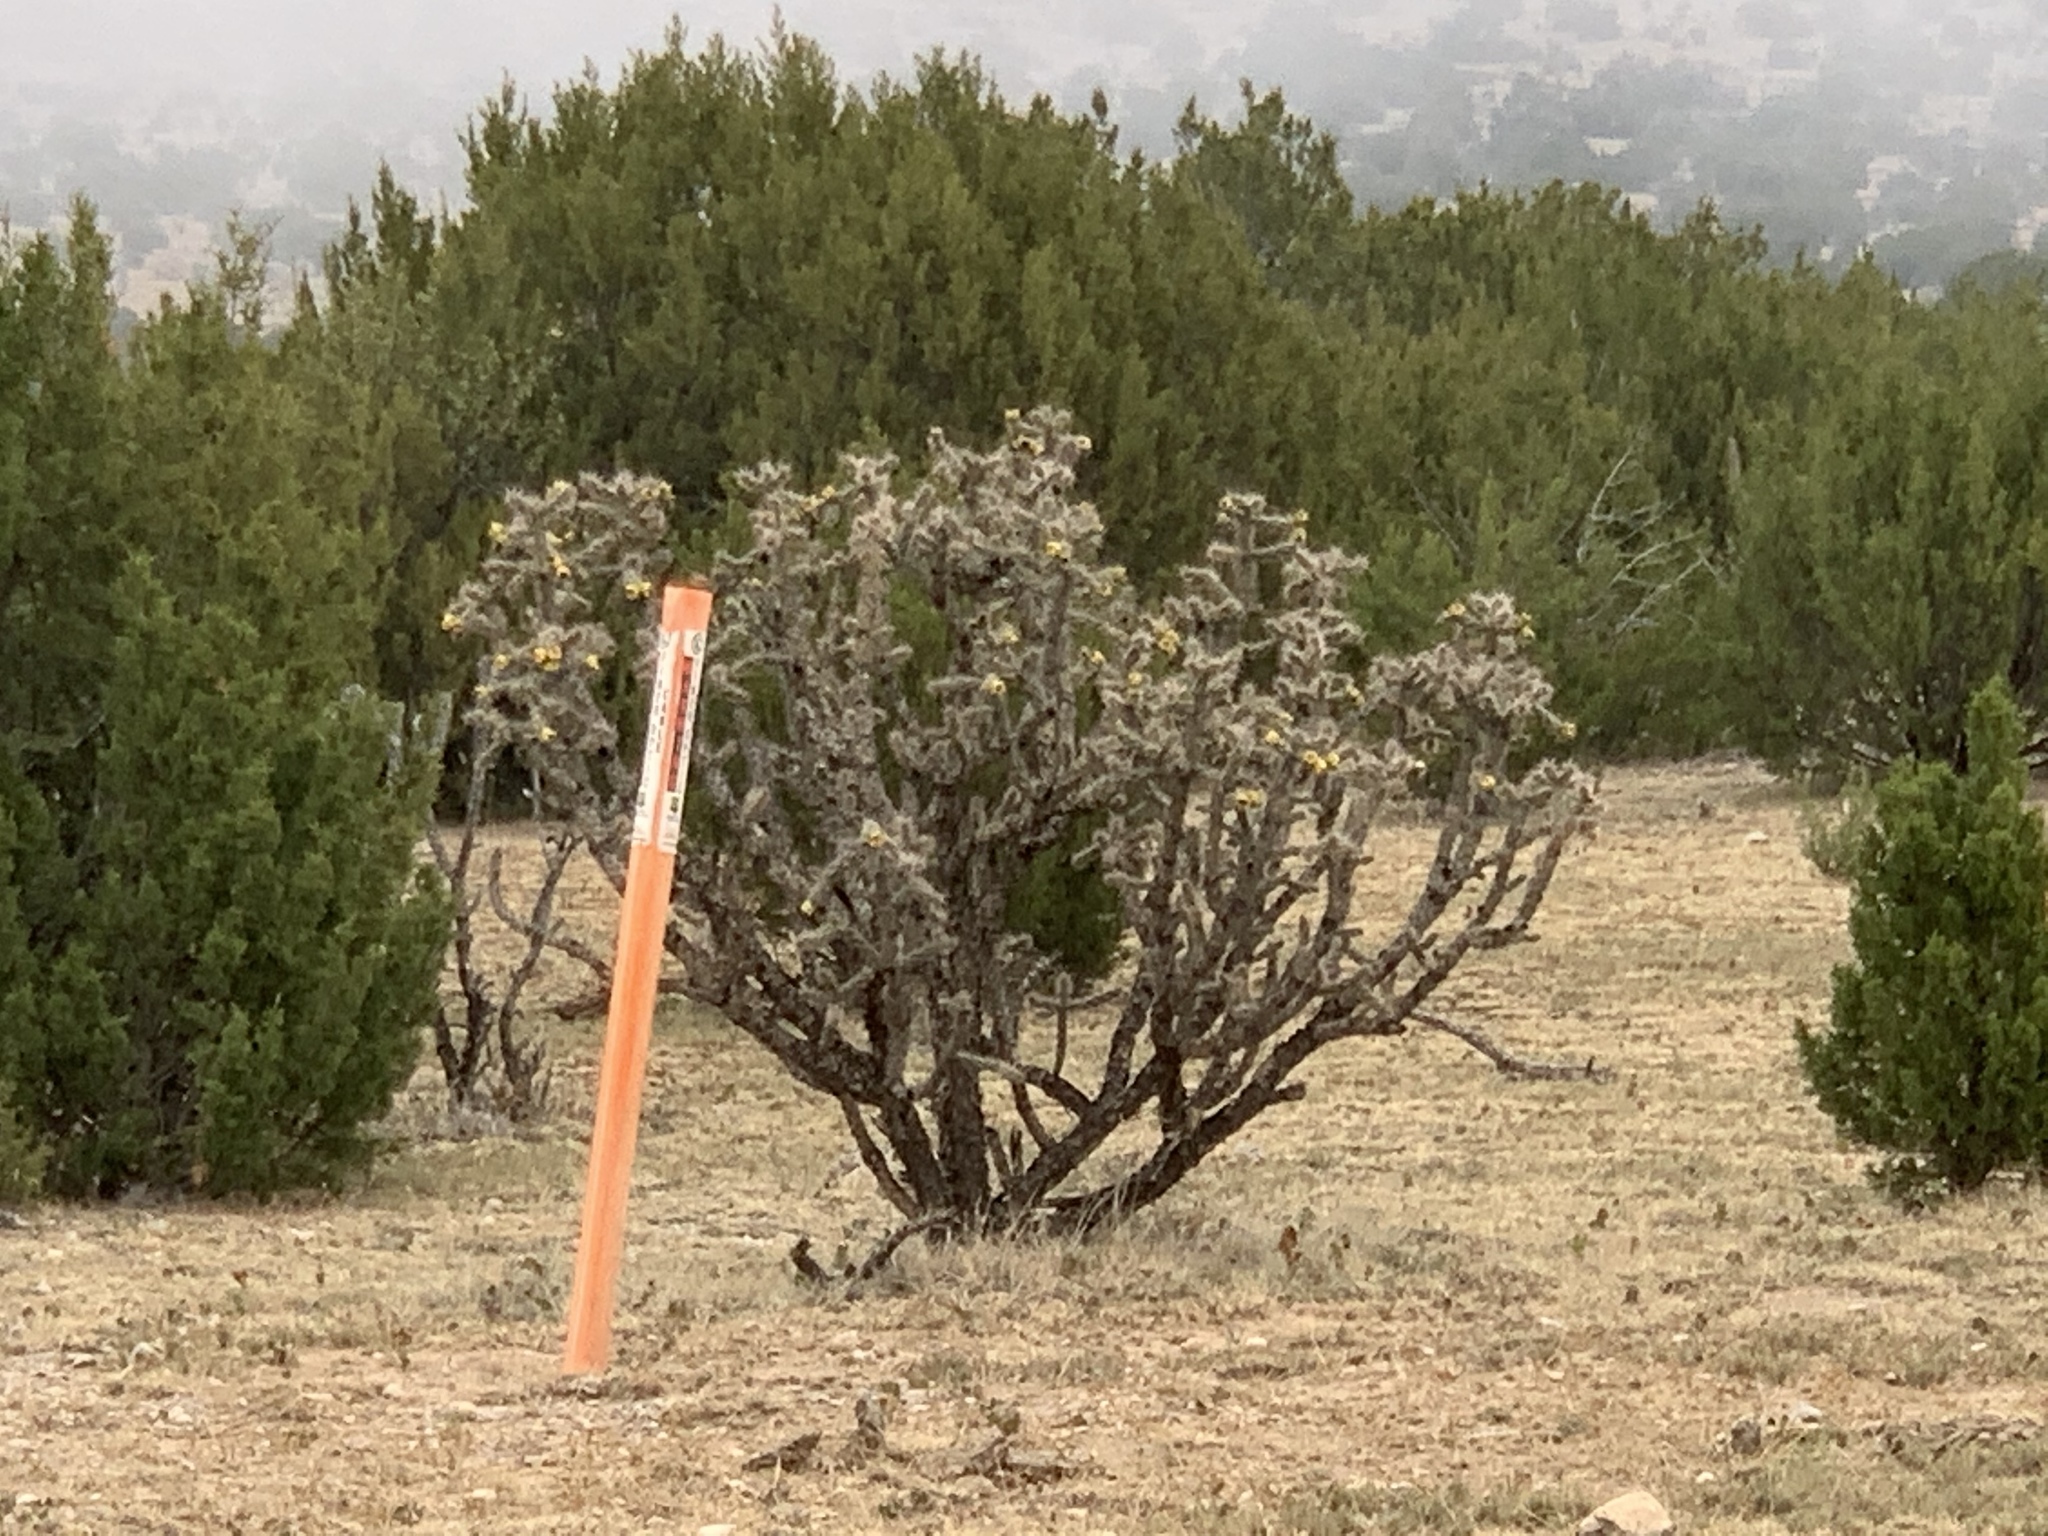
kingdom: Plantae
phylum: Tracheophyta
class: Magnoliopsida
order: Caryophyllales
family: Cactaceae
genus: Cylindropuntia
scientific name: Cylindropuntia imbricata
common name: Candelabrum cactus
